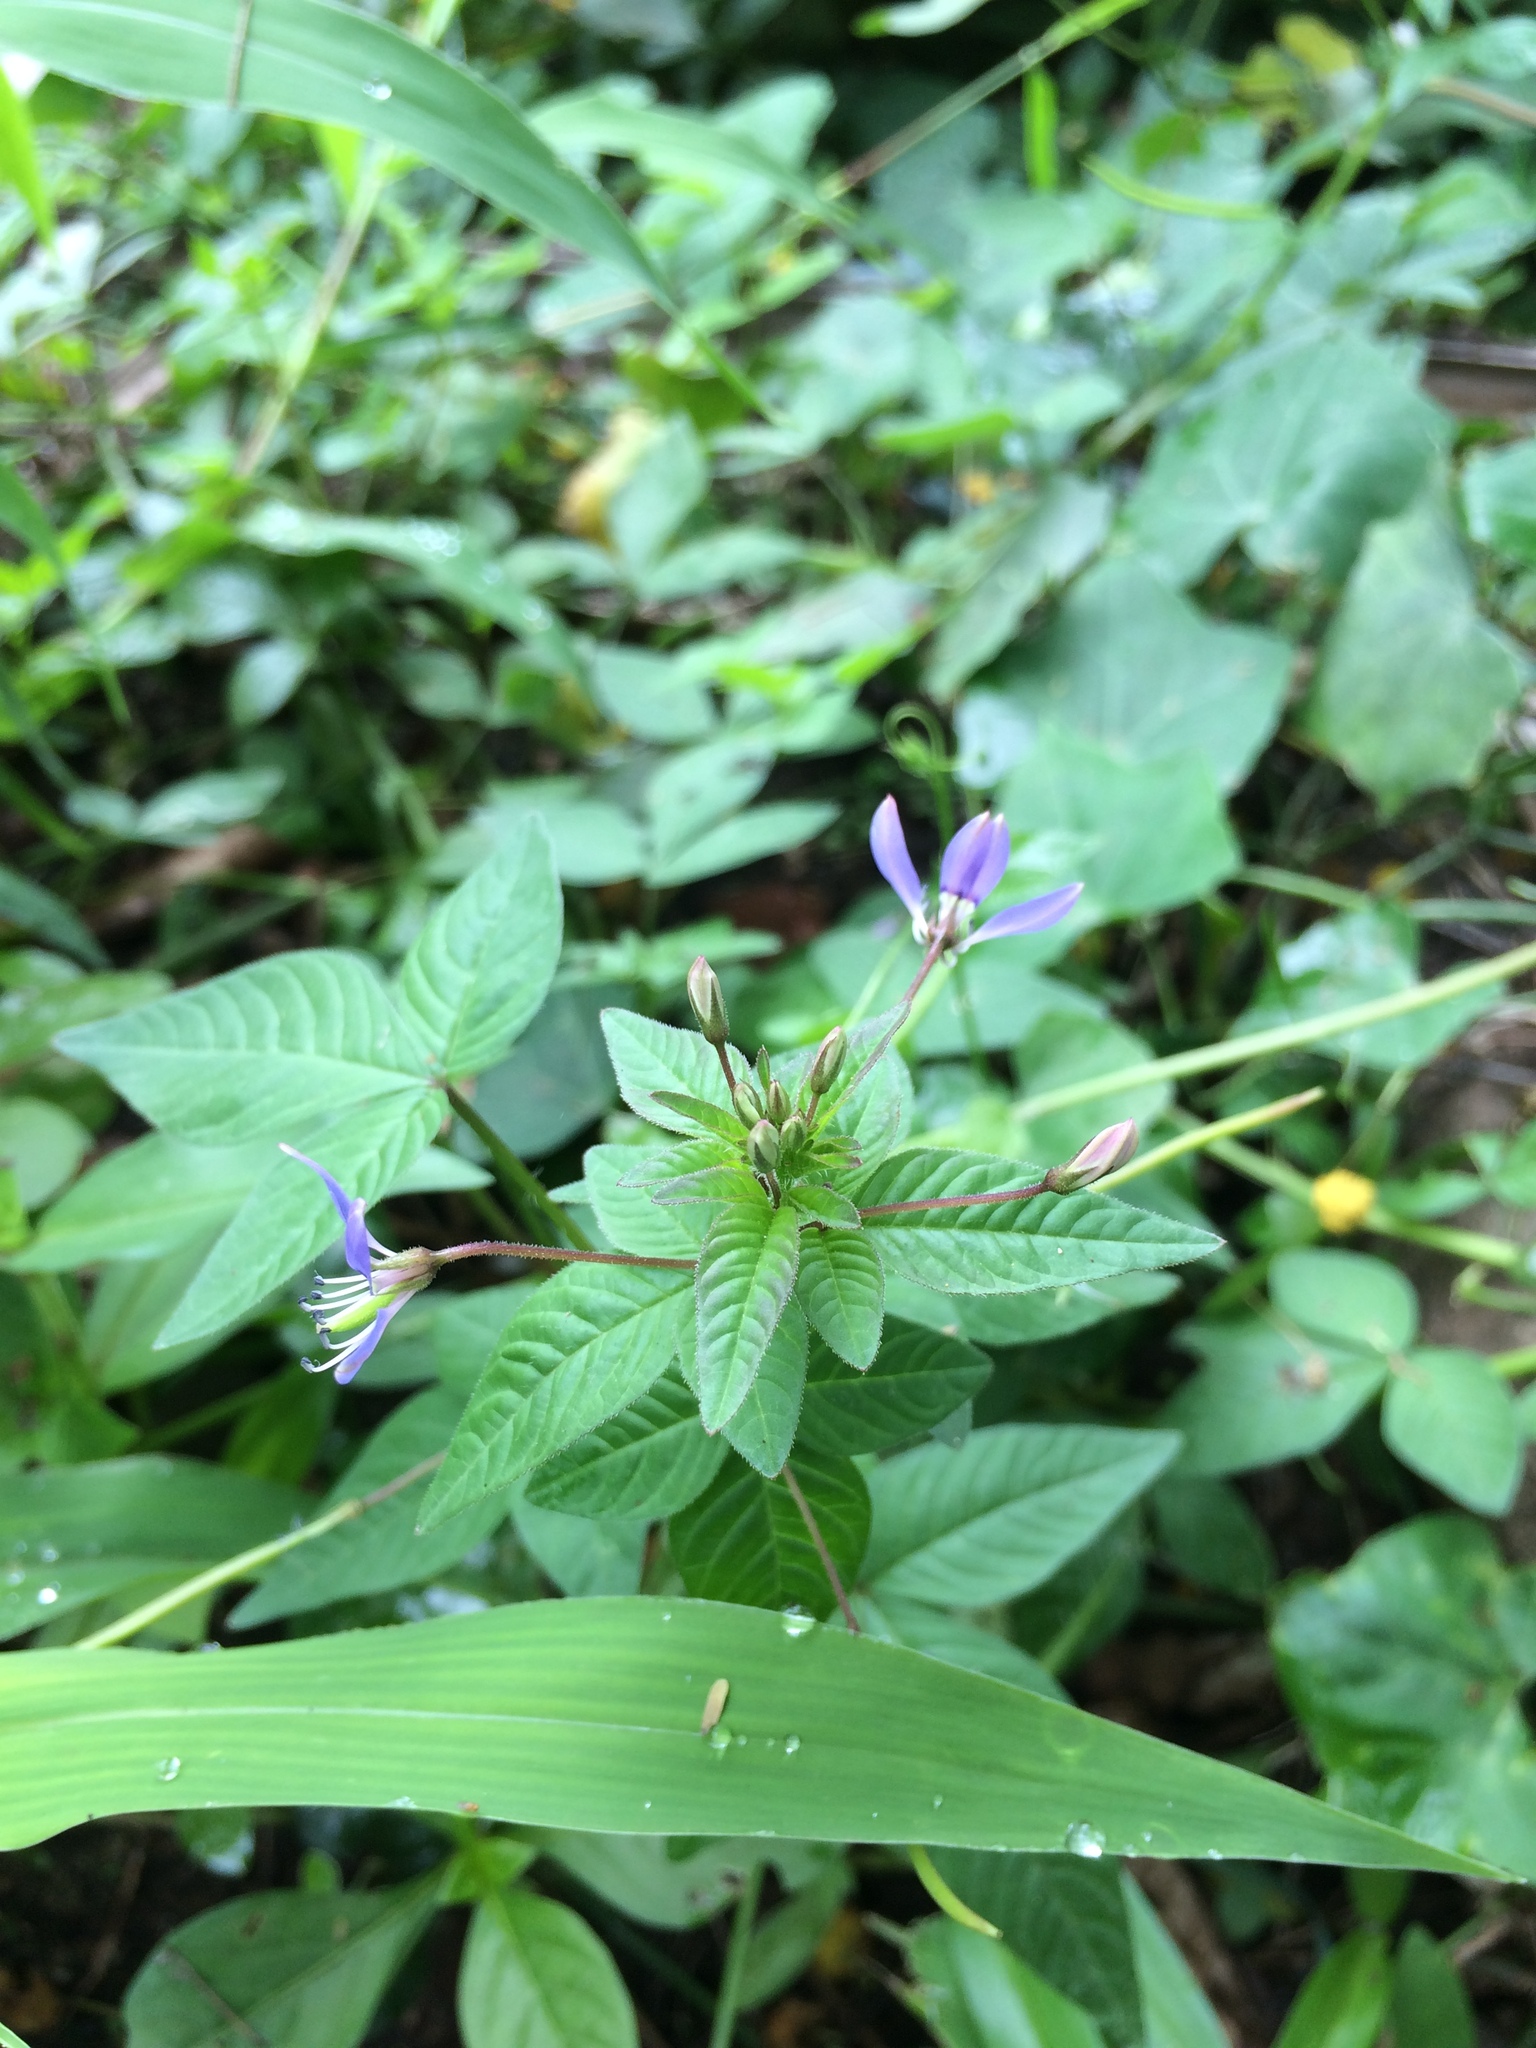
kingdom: Plantae
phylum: Tracheophyta
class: Magnoliopsida
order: Brassicales
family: Cleomaceae
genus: Sieruela
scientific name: Sieruela rutidosperma
